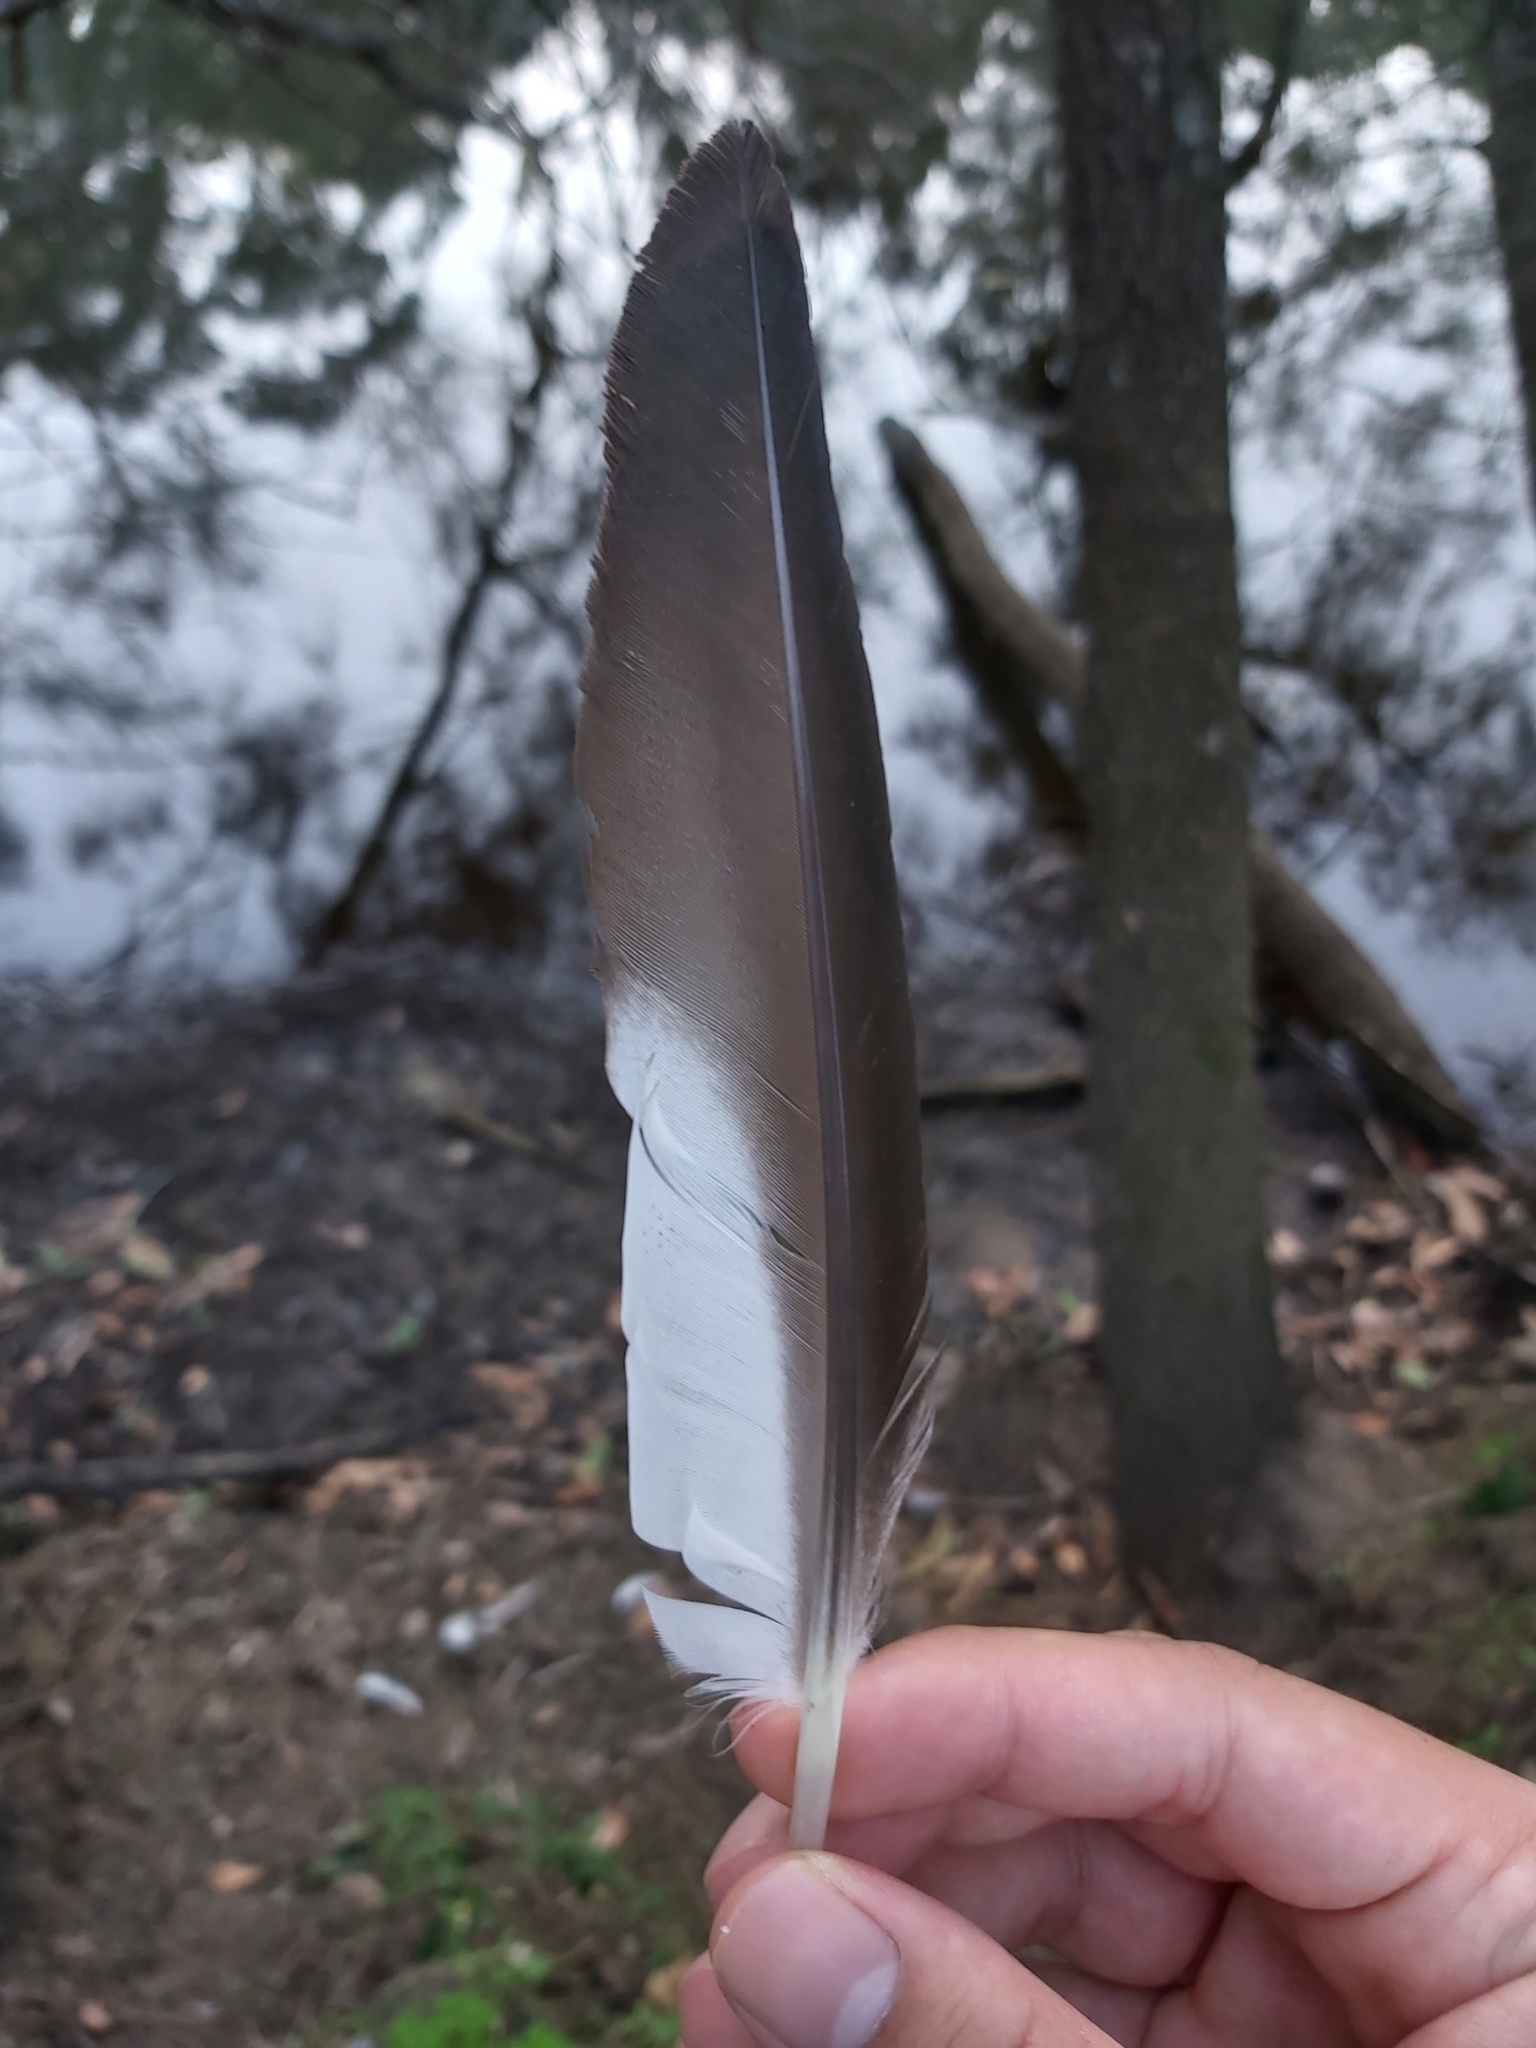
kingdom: Animalia
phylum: Chordata
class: Aves
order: Anseriformes
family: Anatidae
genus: Chenonetta
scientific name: Chenonetta jubata
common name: Maned duck
